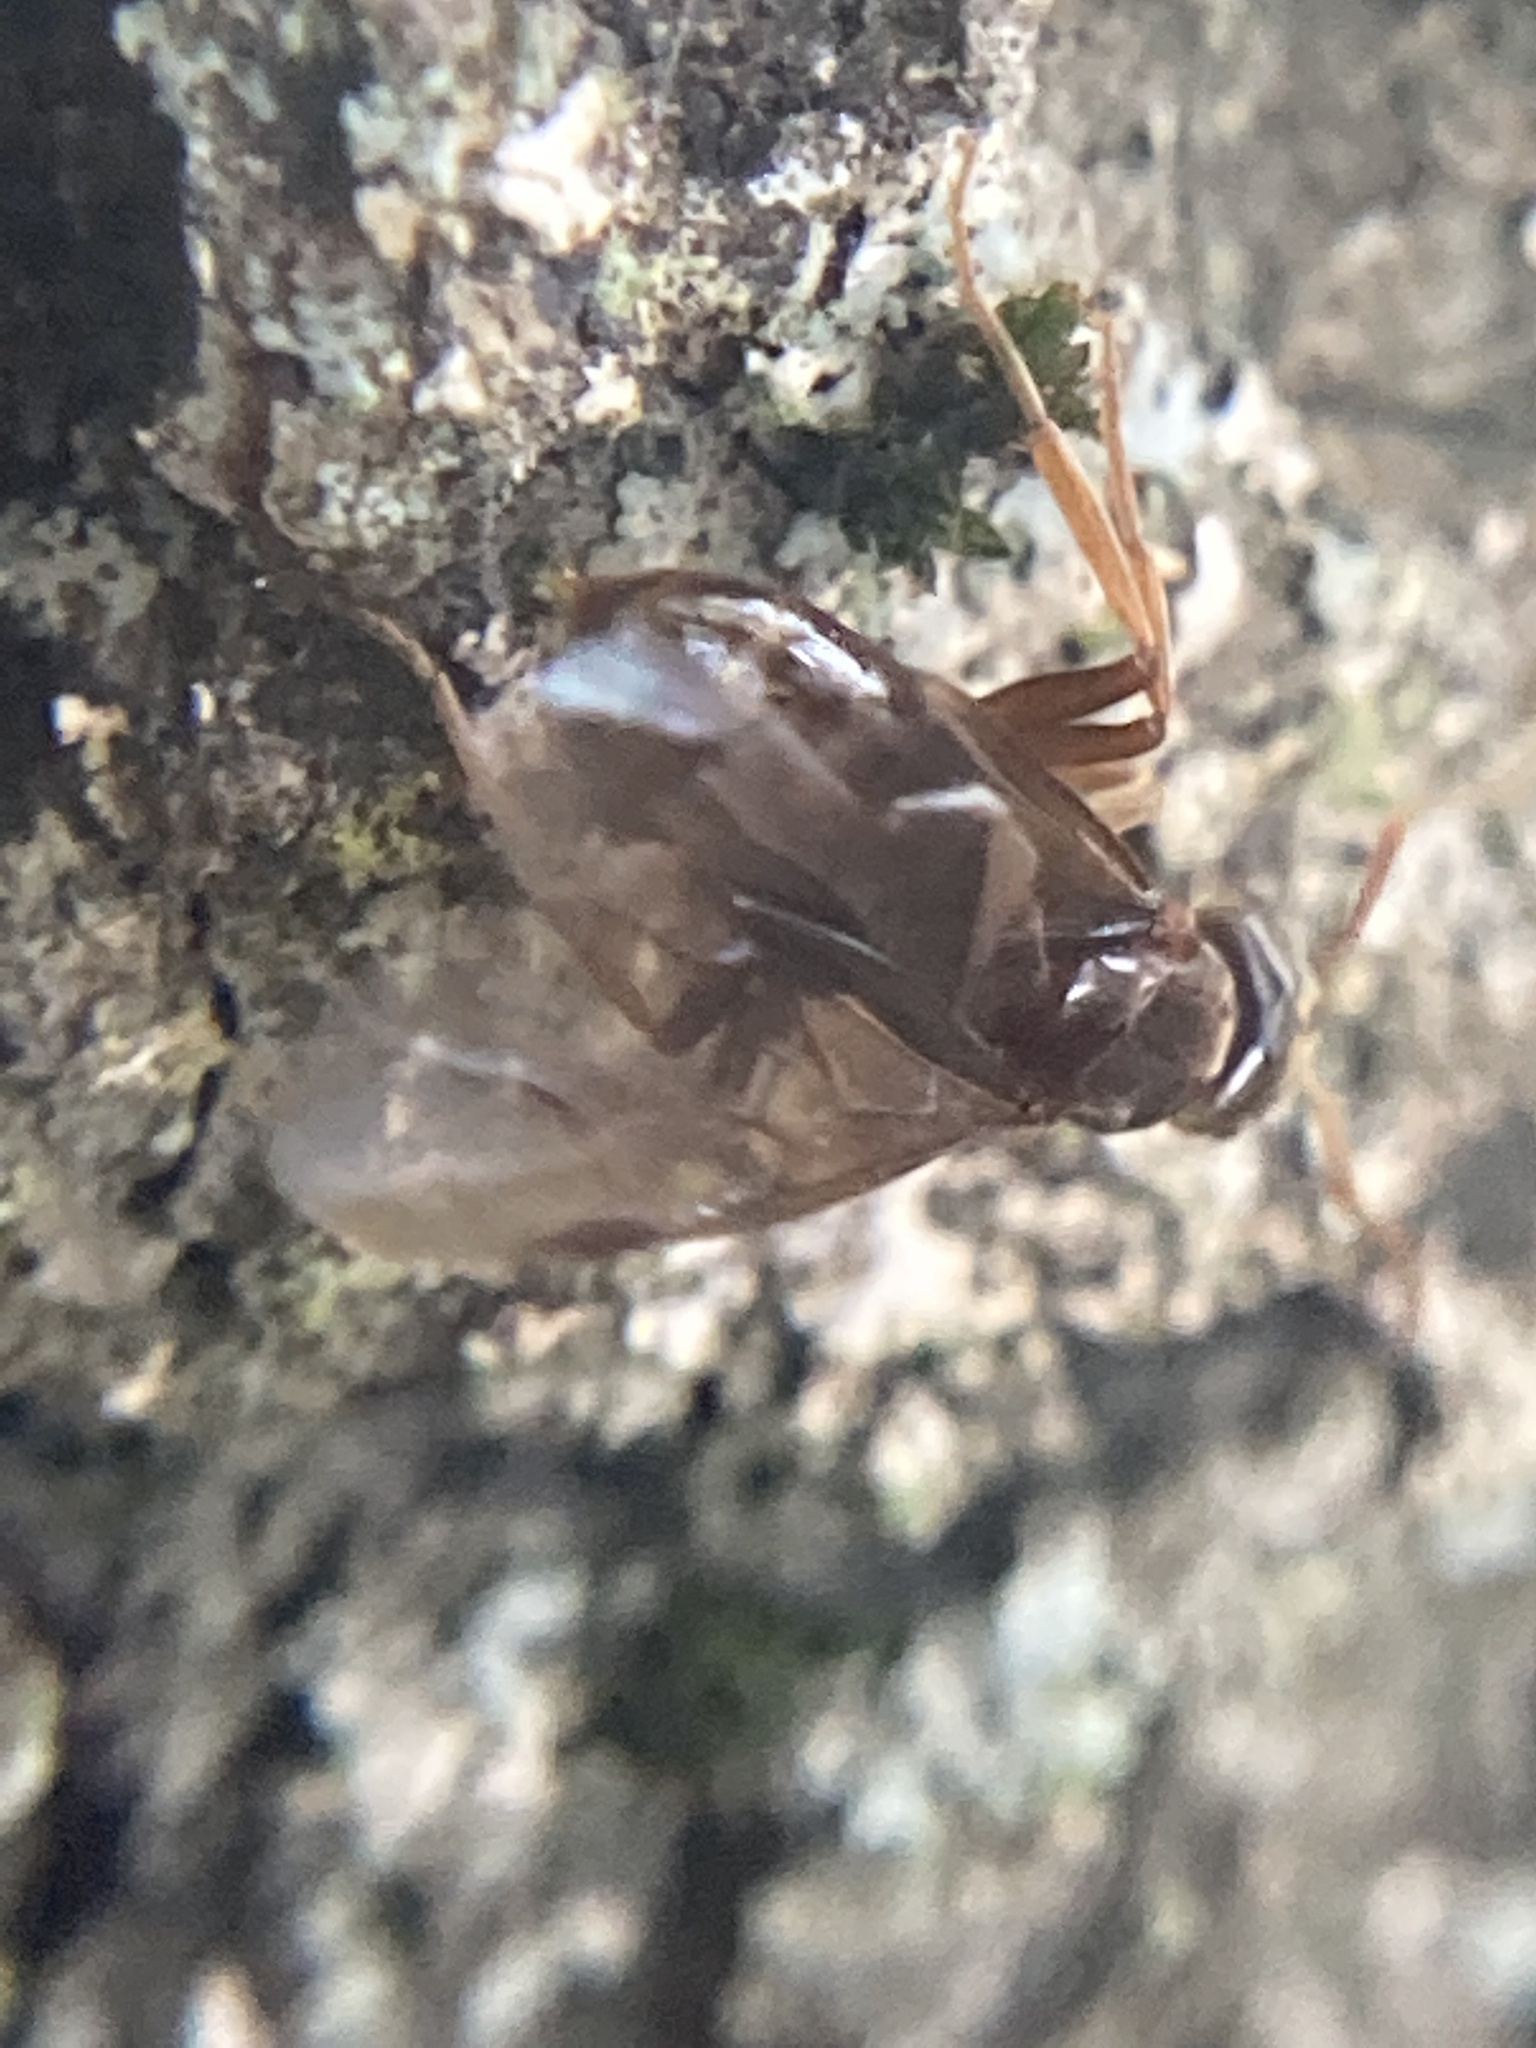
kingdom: Animalia
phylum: Arthropoda
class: Insecta
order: Hymenoptera
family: Formicidae
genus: Lasius
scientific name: Lasius aphidicola
